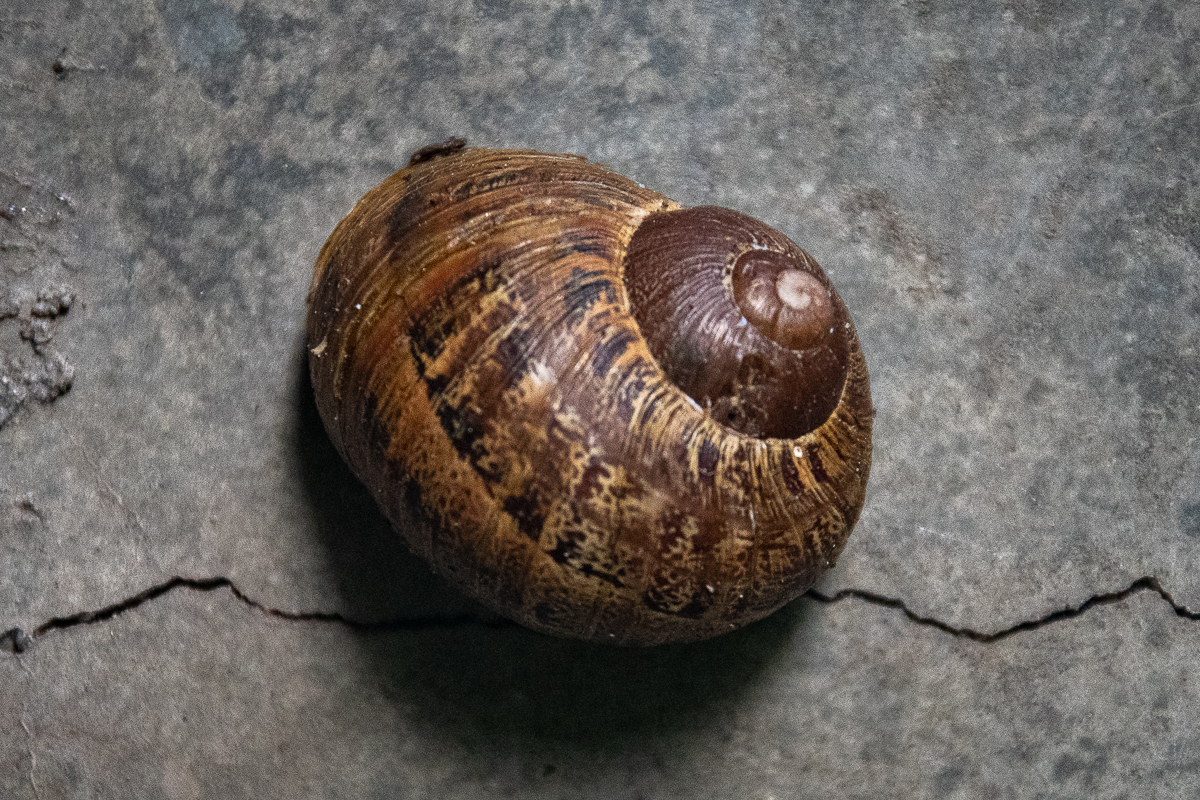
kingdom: Animalia
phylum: Mollusca
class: Gastropoda
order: Stylommatophora
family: Helicidae
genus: Cornu
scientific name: Cornu aspersum
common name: Brown garden snail
